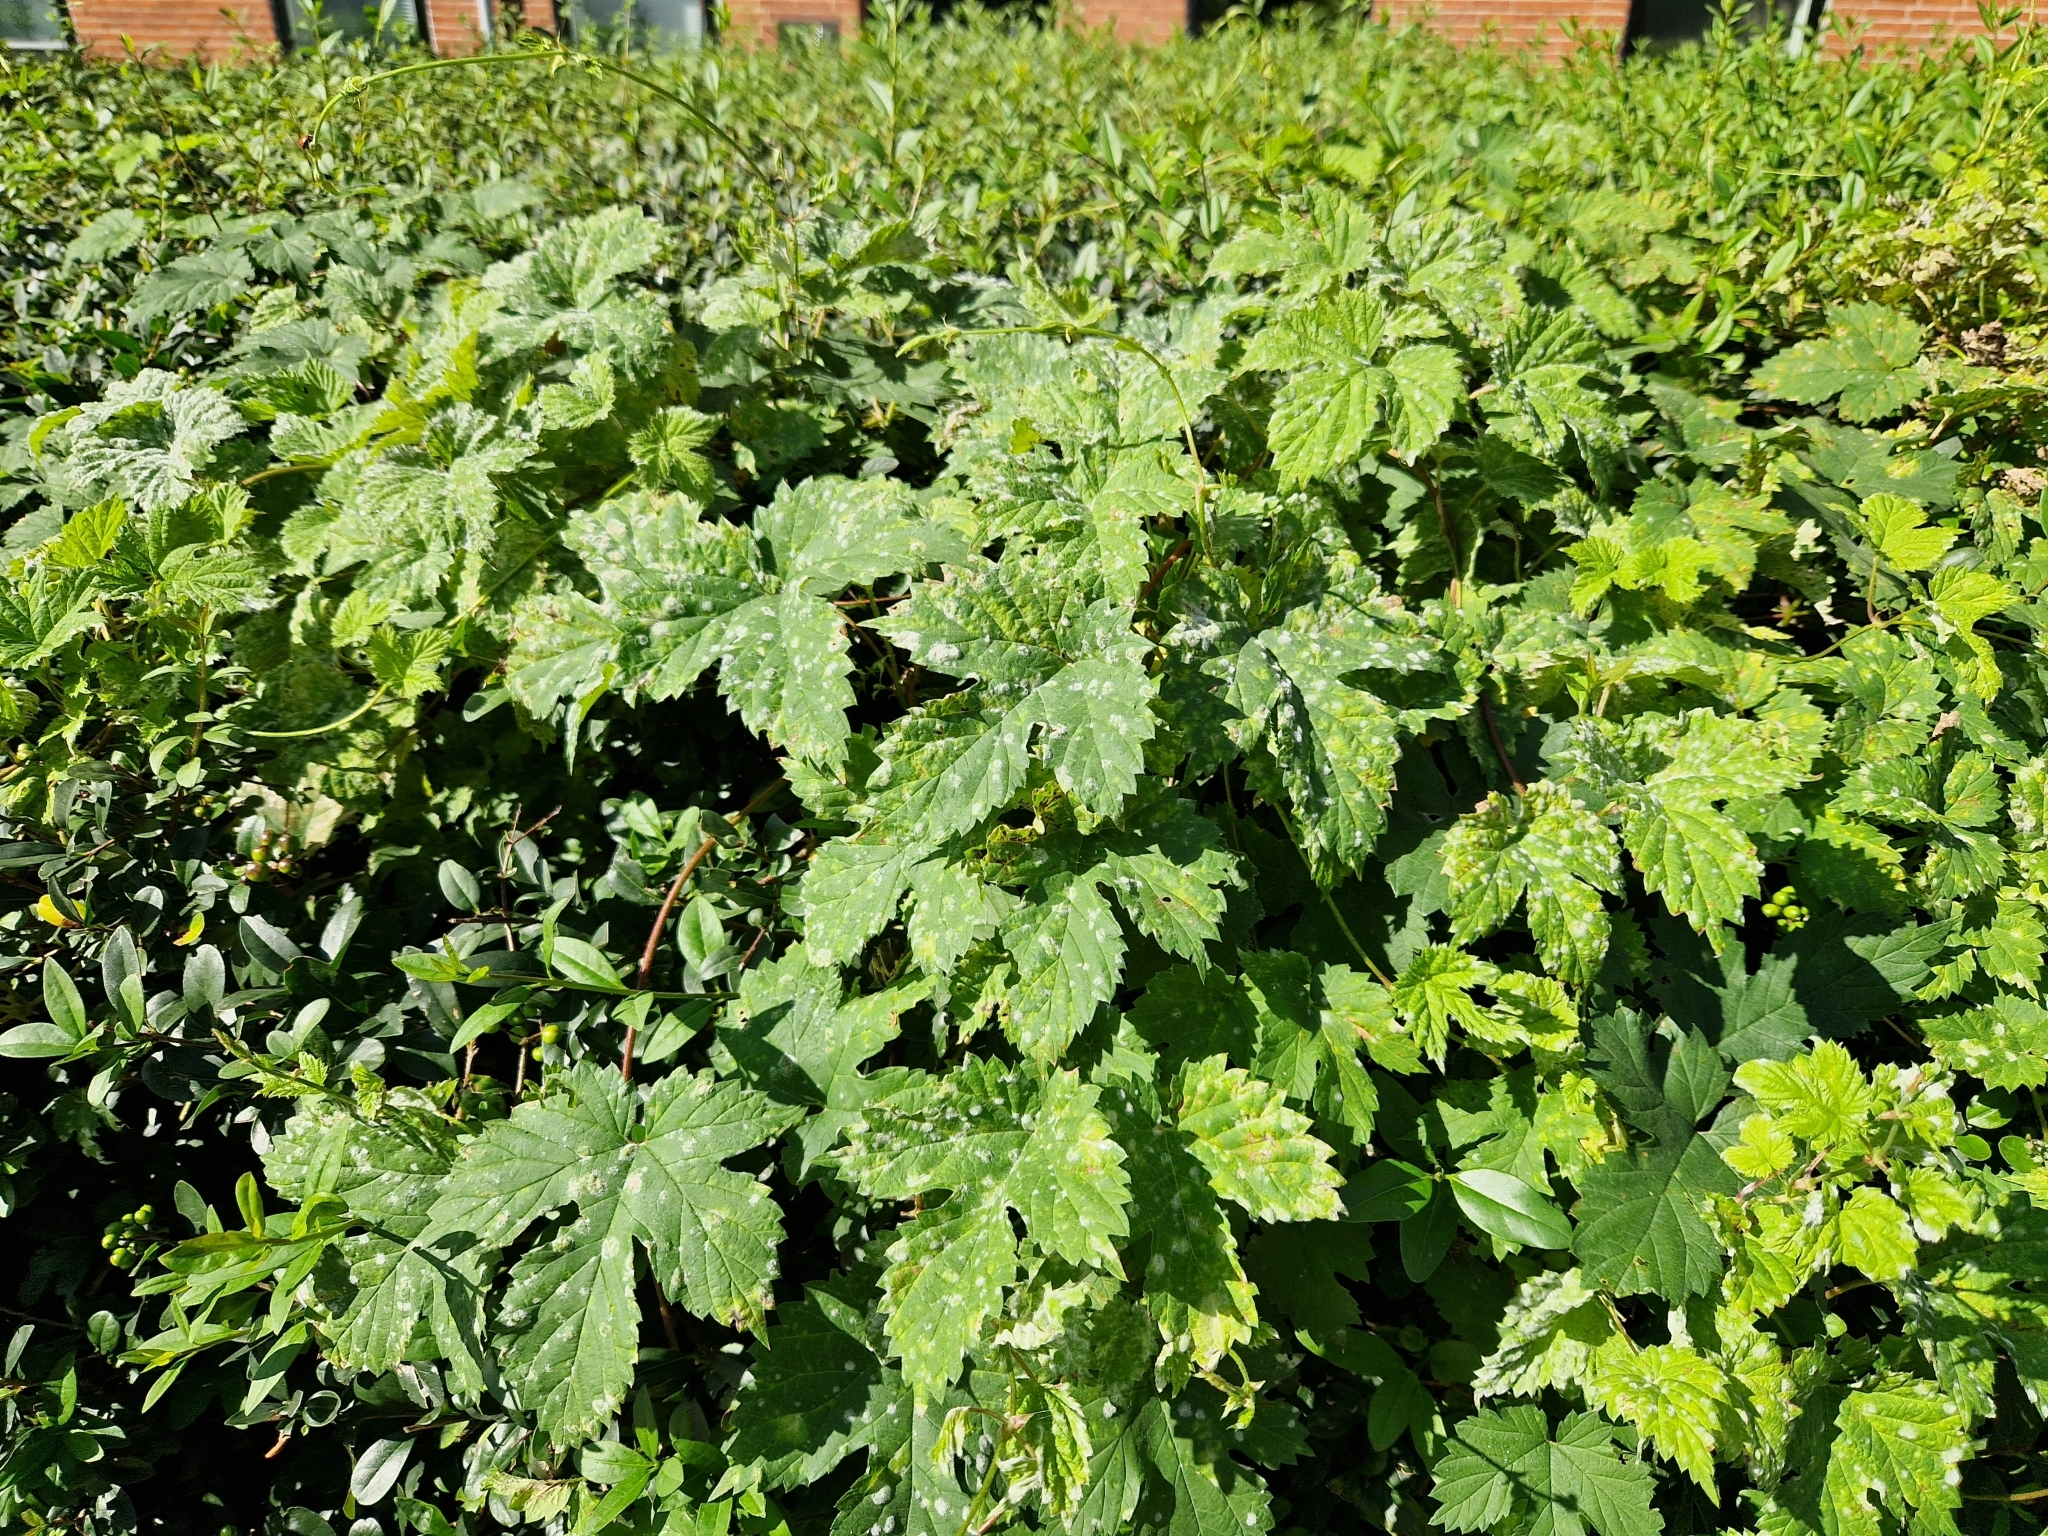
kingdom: Plantae
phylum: Tracheophyta
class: Magnoliopsida
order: Rosales
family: Cannabaceae
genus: Humulus
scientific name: Humulus lupulus
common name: Hop
